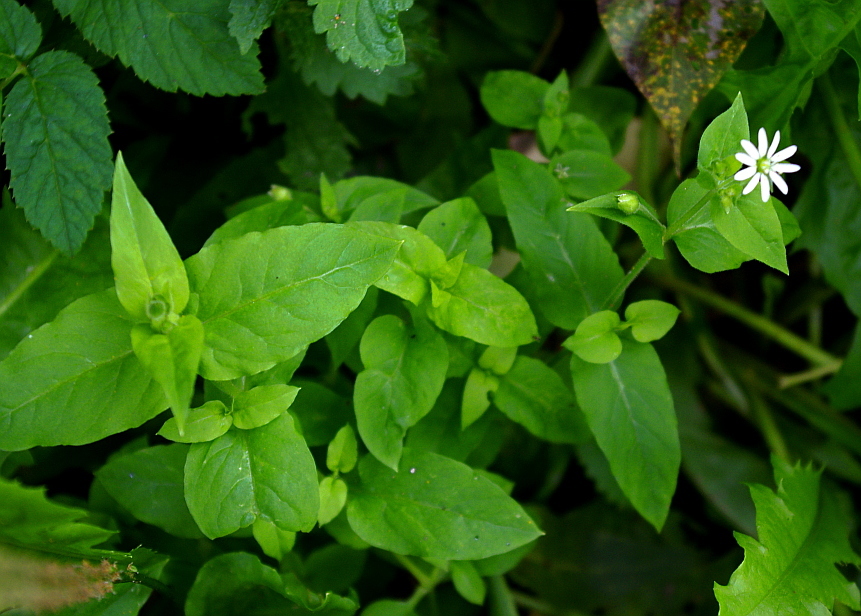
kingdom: Plantae
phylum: Tracheophyta
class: Magnoliopsida
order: Caryophyllales
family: Caryophyllaceae
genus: Stellaria
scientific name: Stellaria aquatica
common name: Water chickweed
